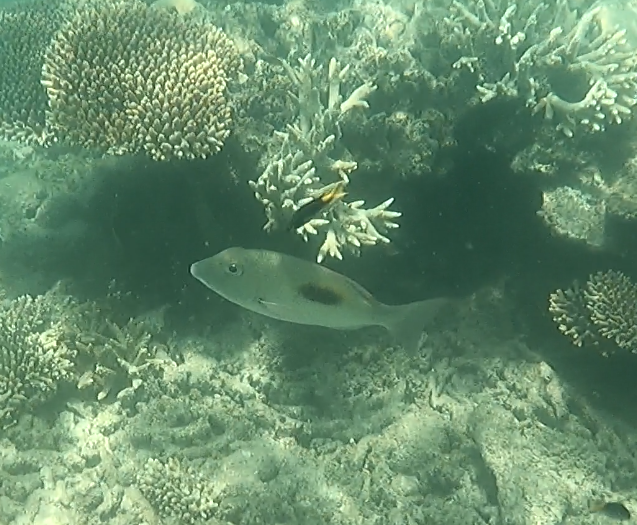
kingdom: Animalia
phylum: Chordata
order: Perciformes
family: Lethrinidae
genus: Lethrinus
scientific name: Lethrinus harak
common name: Blackspot emperor
